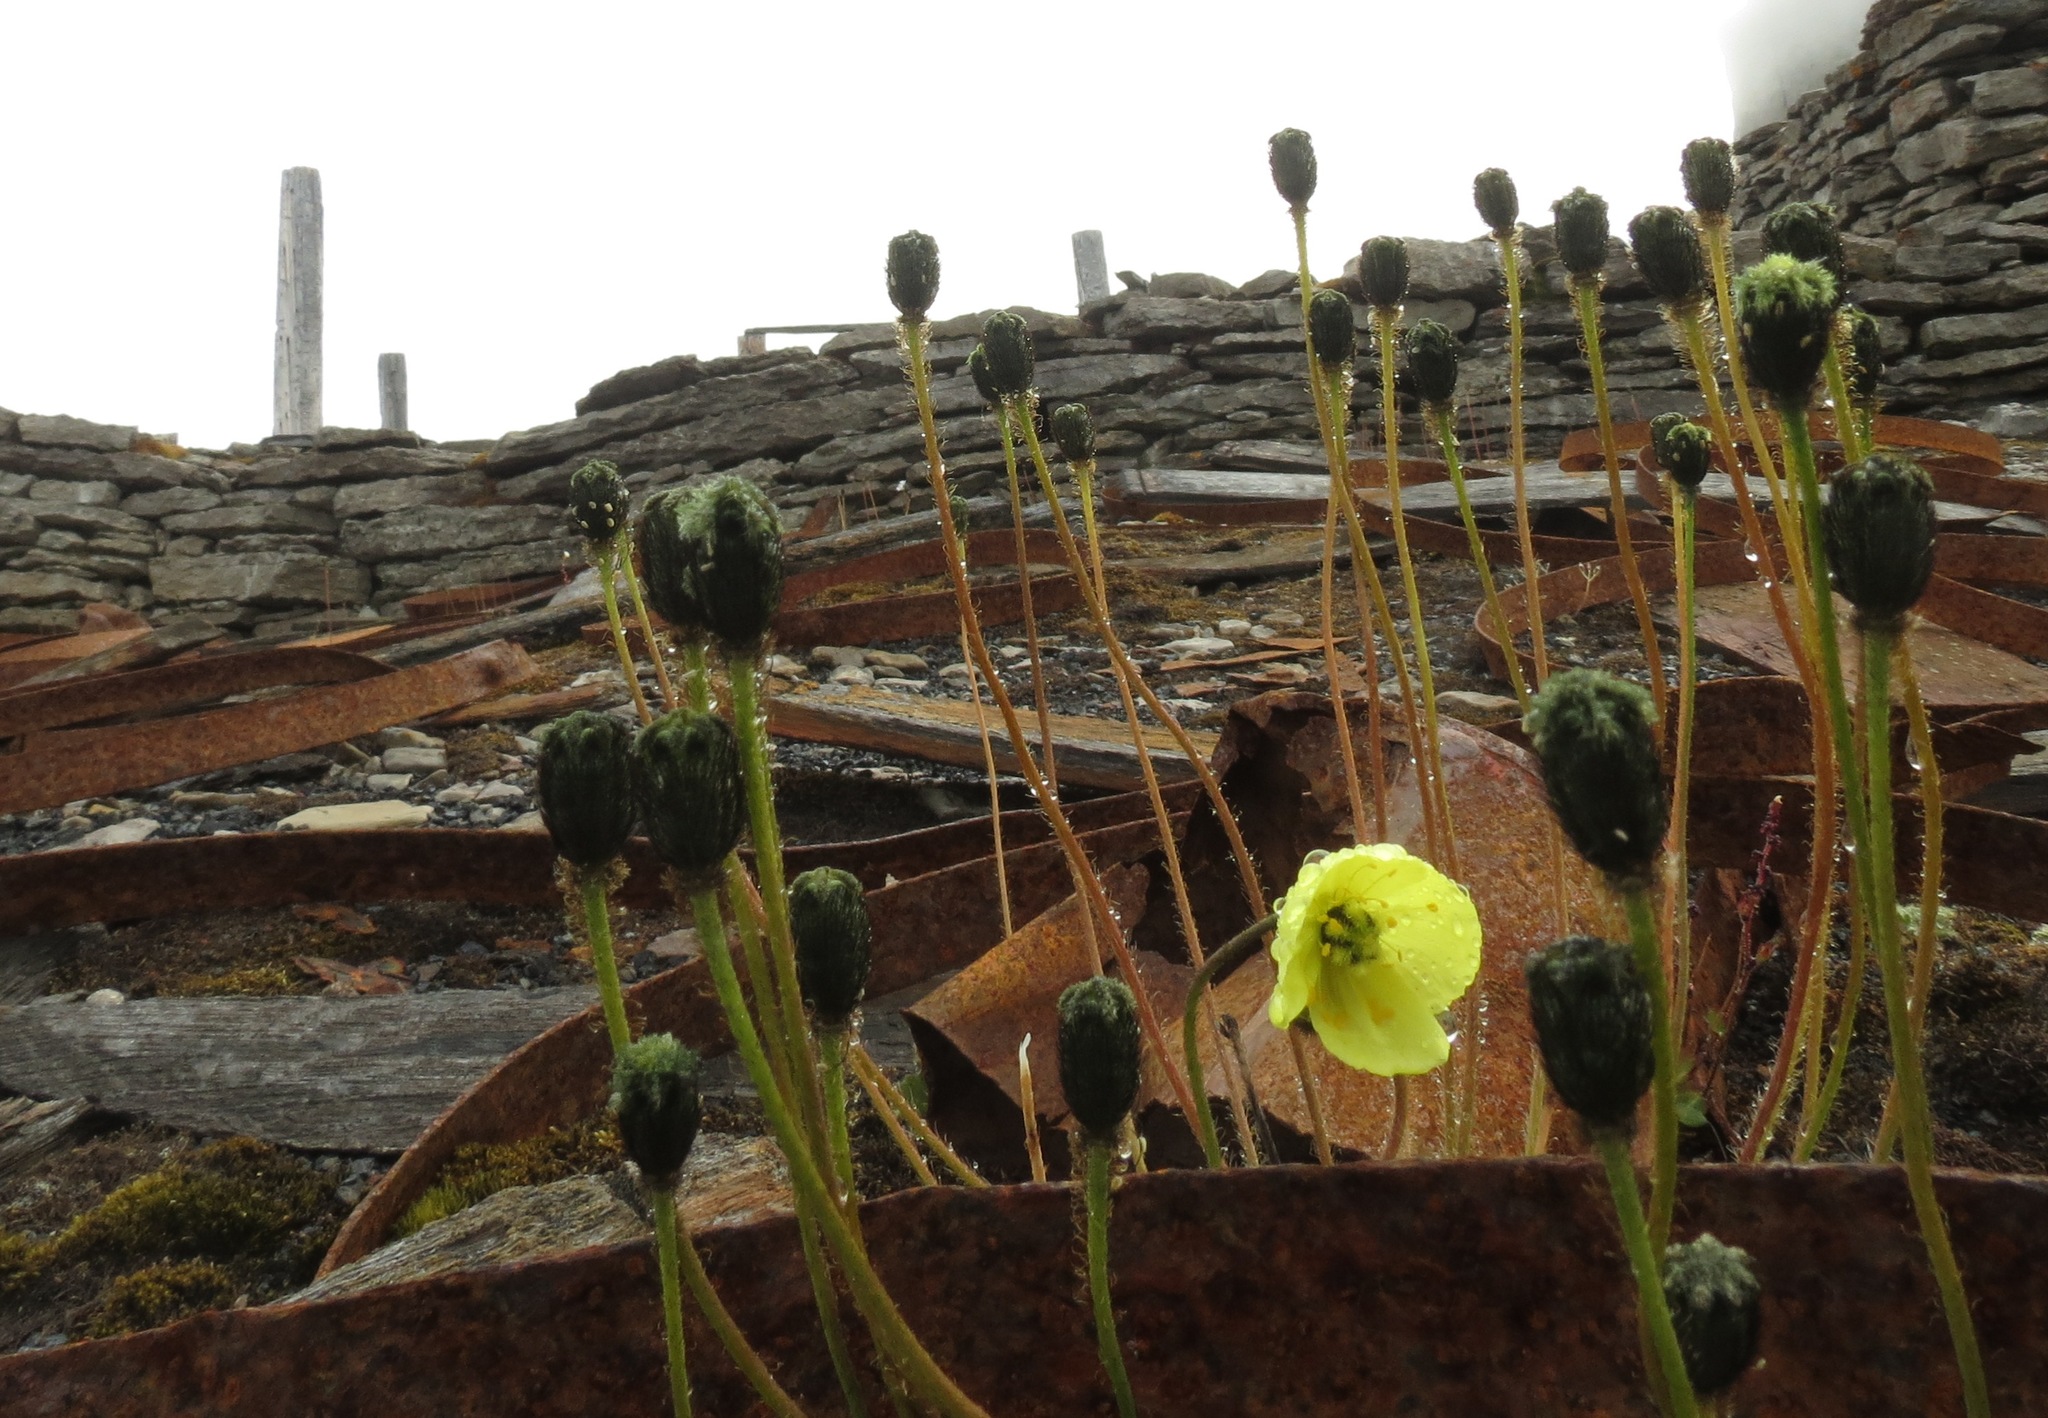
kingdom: Plantae
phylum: Tracheophyta
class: Magnoliopsida
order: Ranunculales
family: Papaveraceae
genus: Papaver
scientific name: Papaver radicatum
